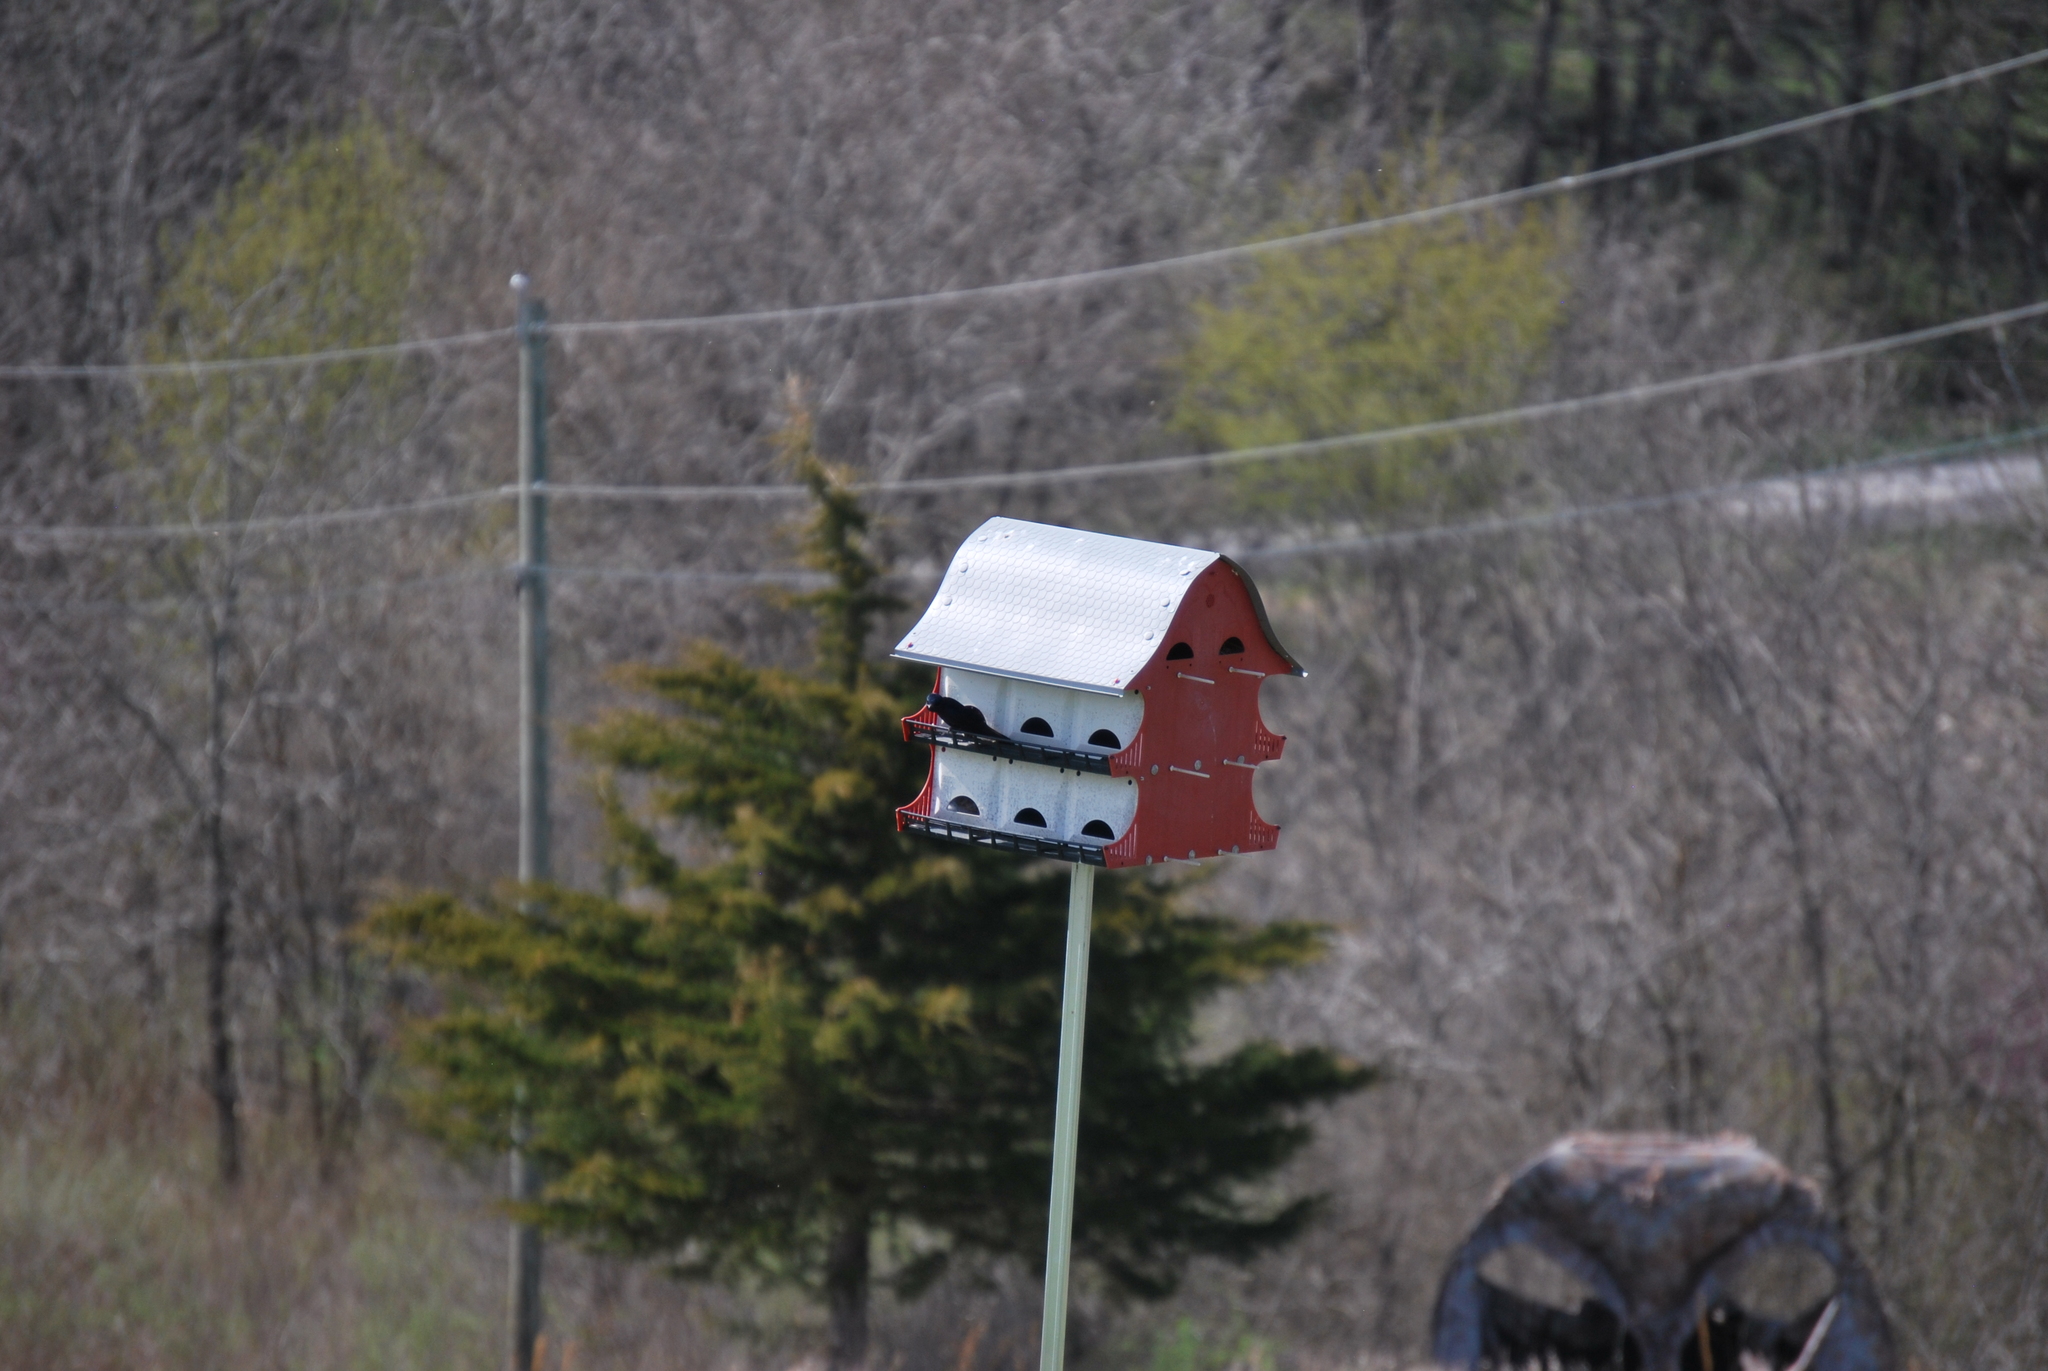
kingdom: Animalia
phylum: Chordata
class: Aves
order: Passeriformes
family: Hirundinidae
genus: Progne
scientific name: Progne subis
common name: Purple martin
